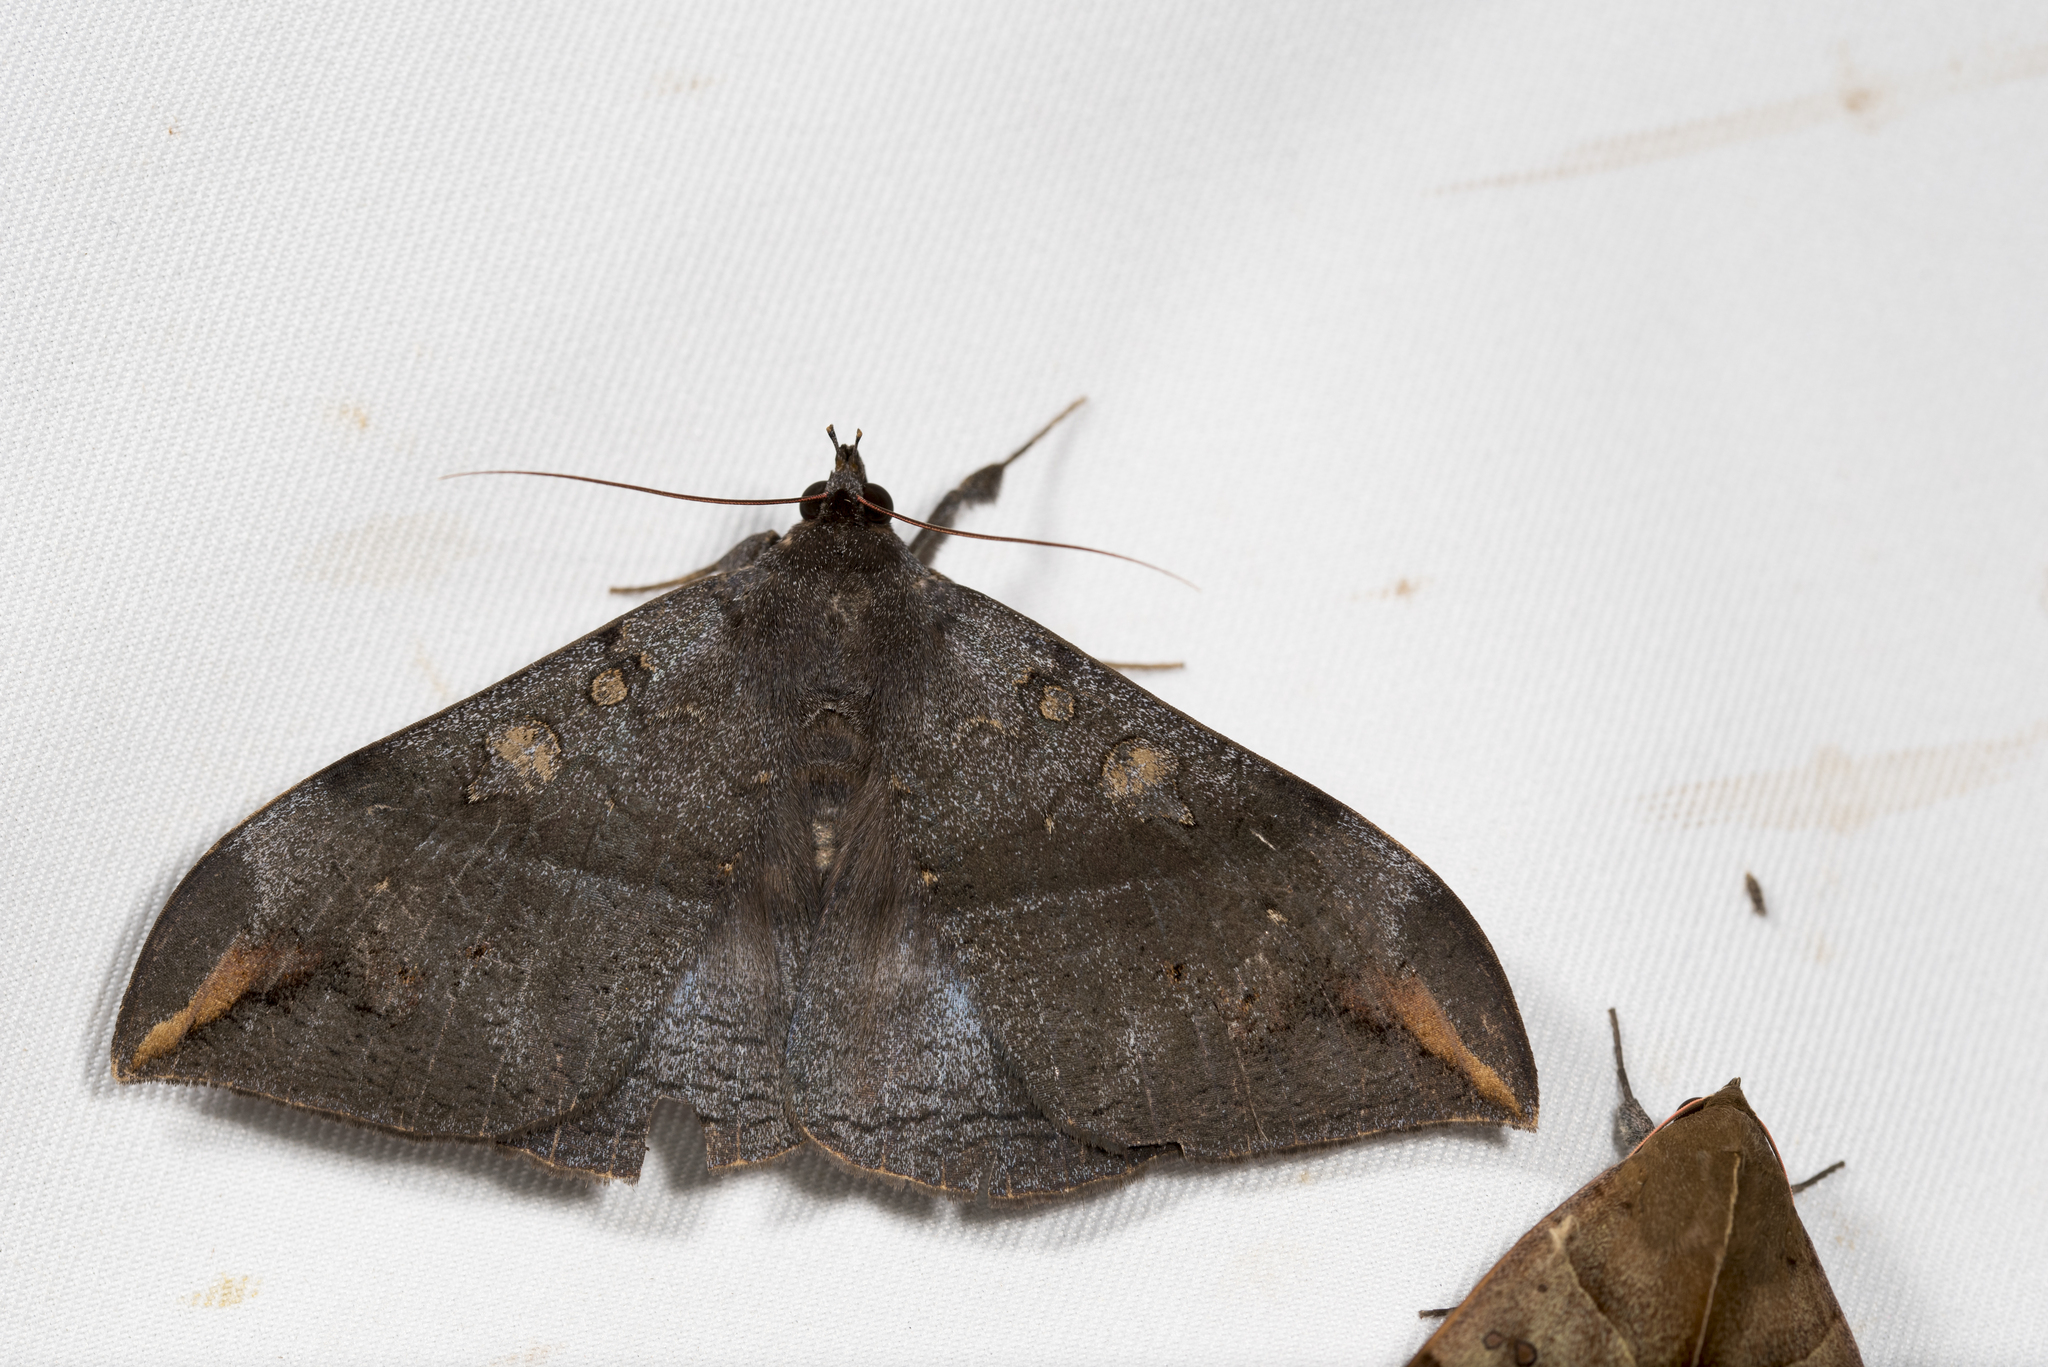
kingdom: Animalia
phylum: Arthropoda
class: Insecta
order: Lepidoptera
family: Erebidae
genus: Ischyja
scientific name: Ischyja ferrifracta
